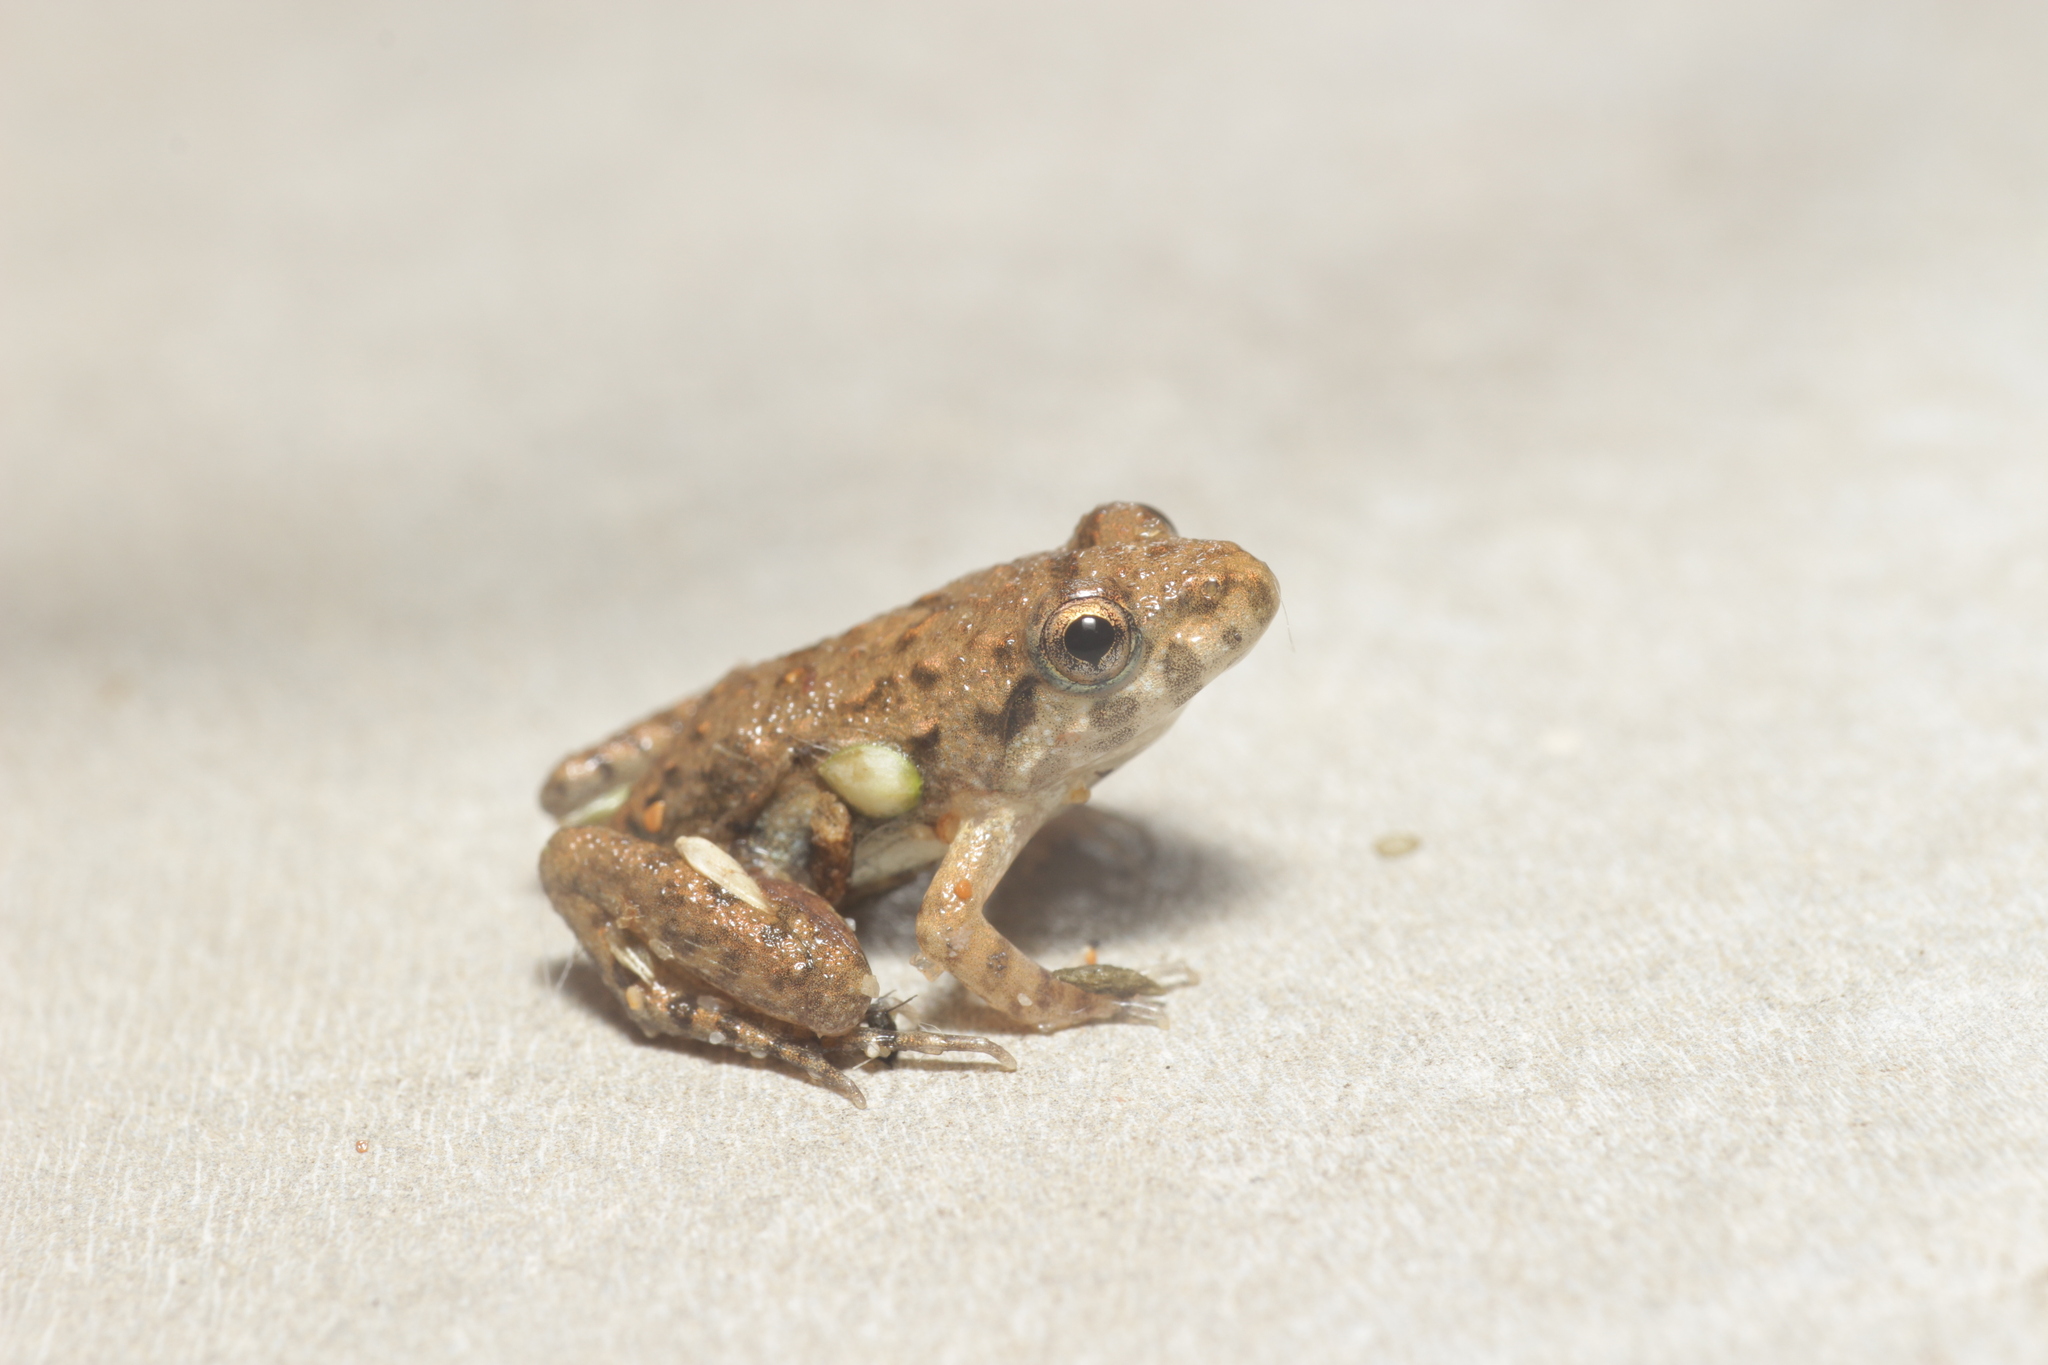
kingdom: Animalia
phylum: Chordata
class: Amphibia
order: Anura
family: Dicroglossidae
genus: Minervarya
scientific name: Minervarya agricola
